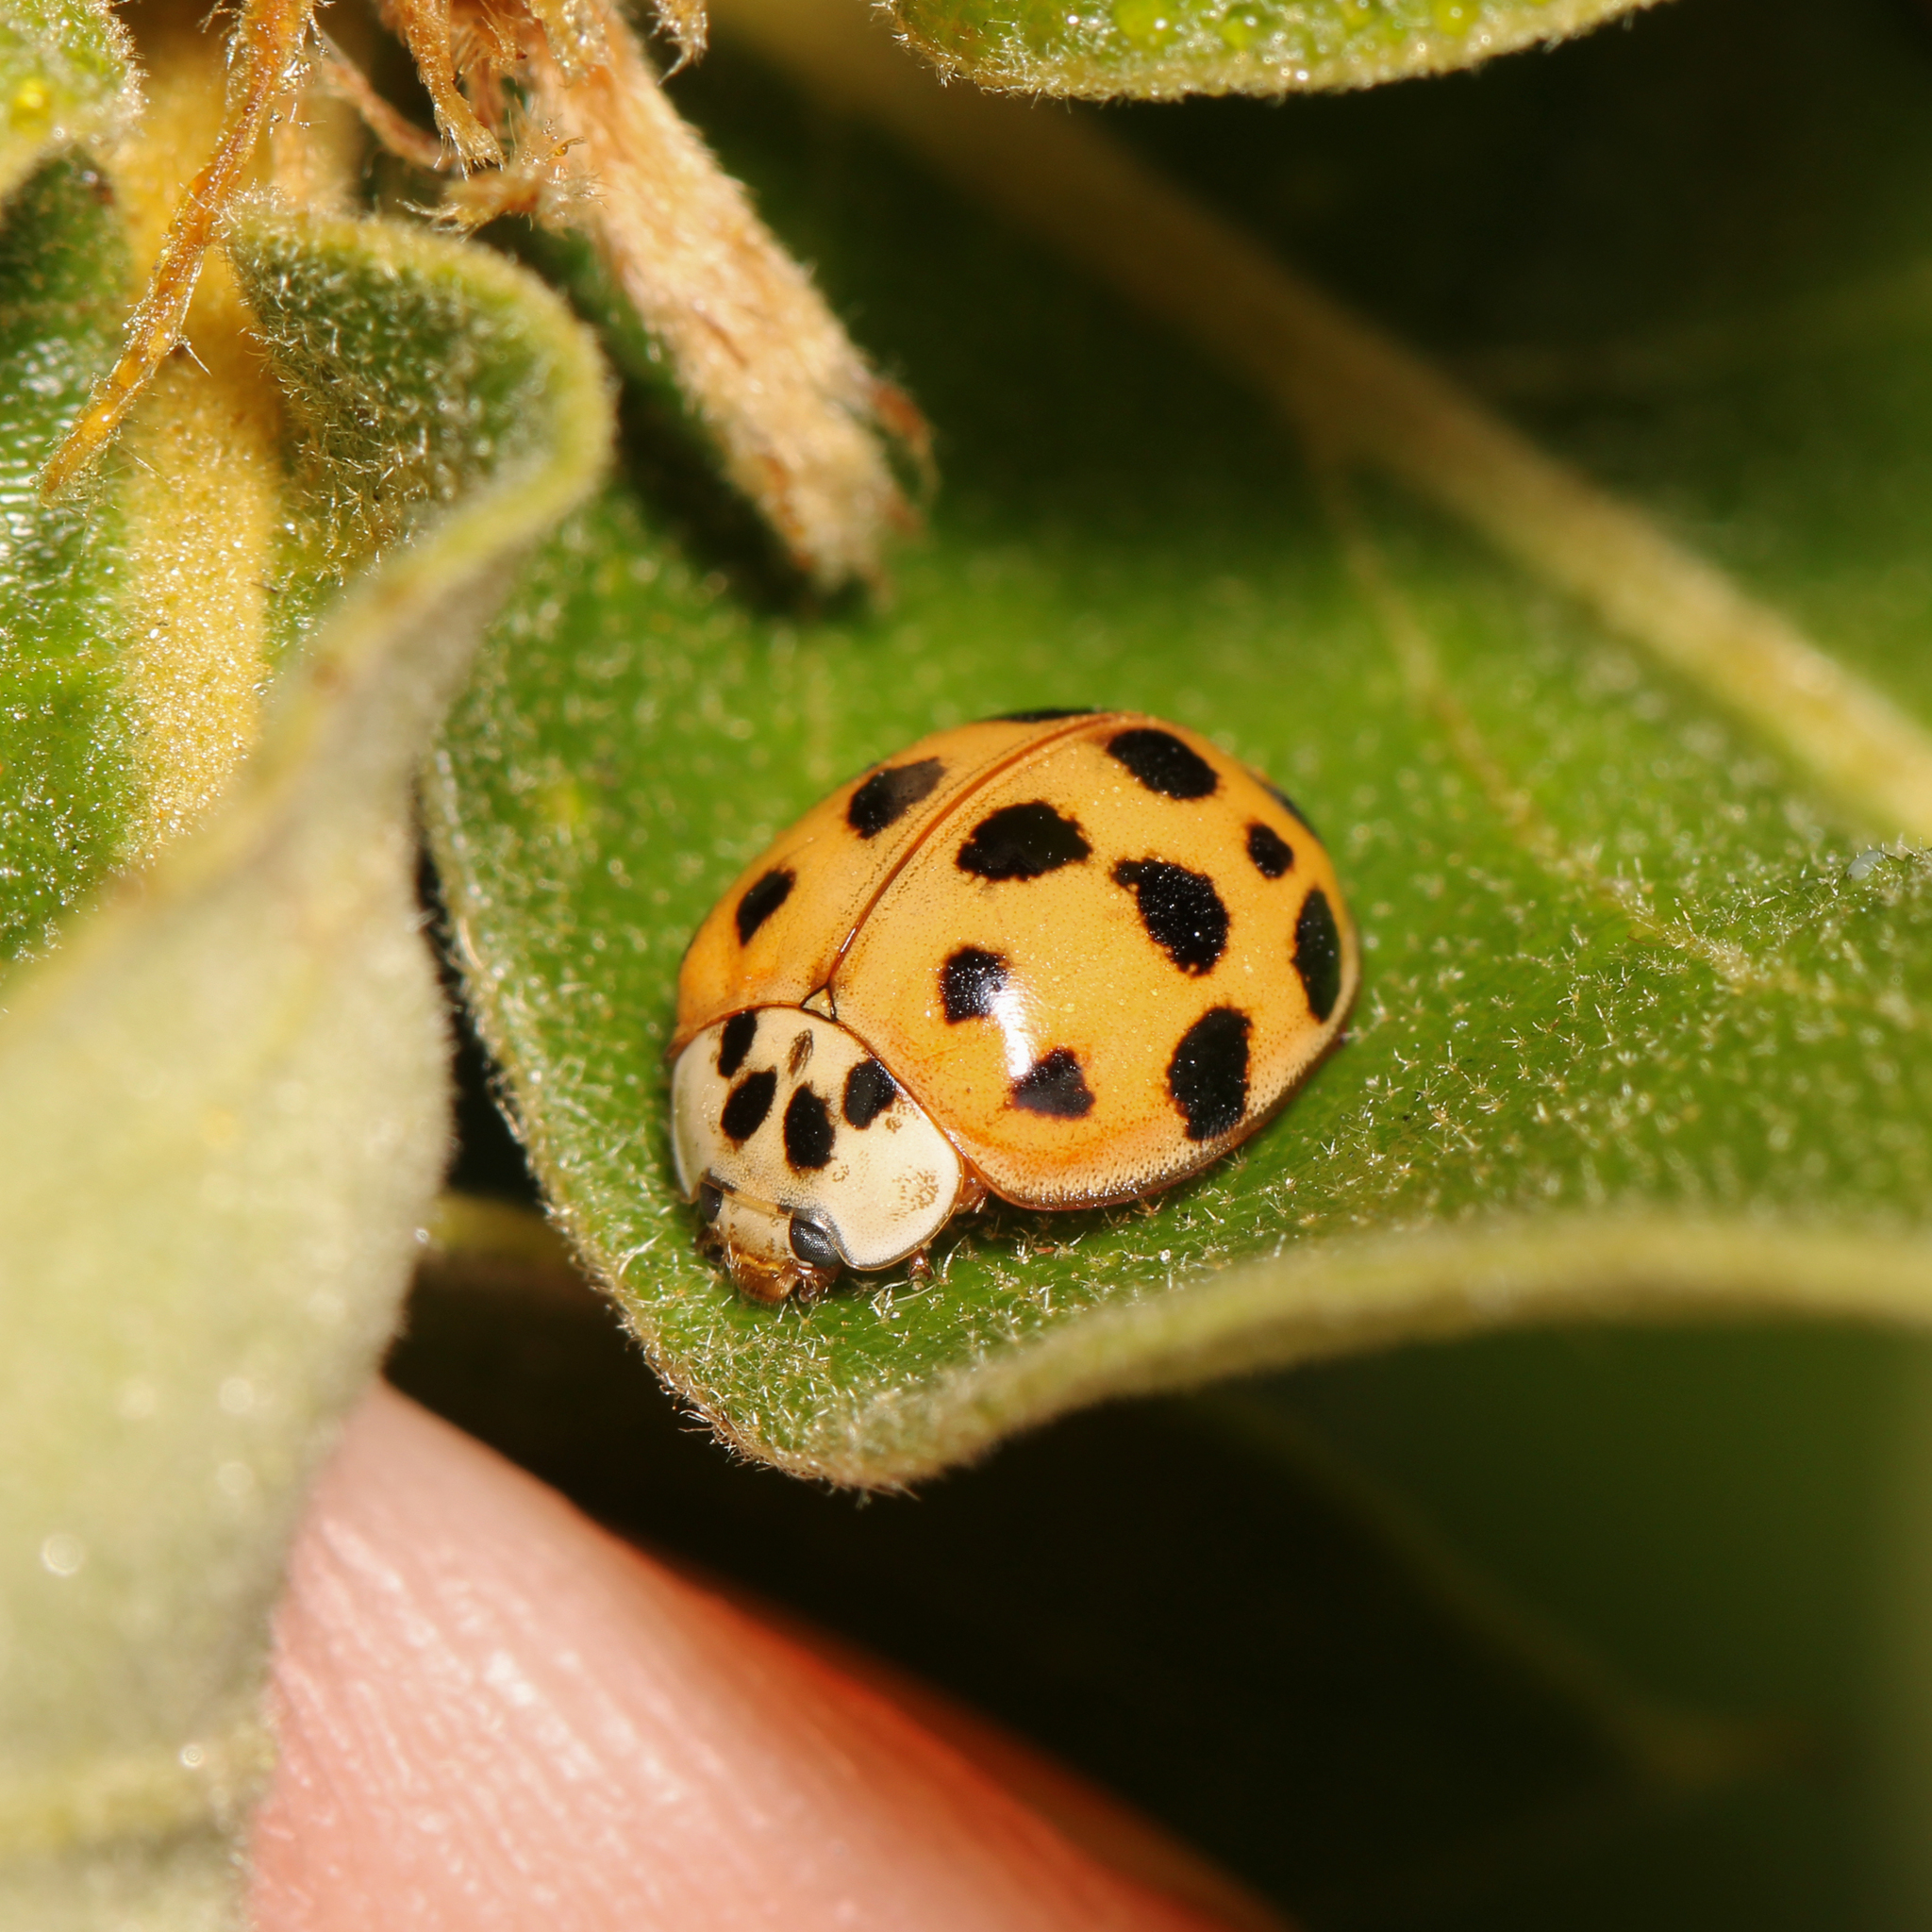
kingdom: Animalia
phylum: Arthropoda
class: Insecta
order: Coleoptera
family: Coccinellidae
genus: Harmonia
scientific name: Harmonia axyridis
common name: Harlequin ladybird
